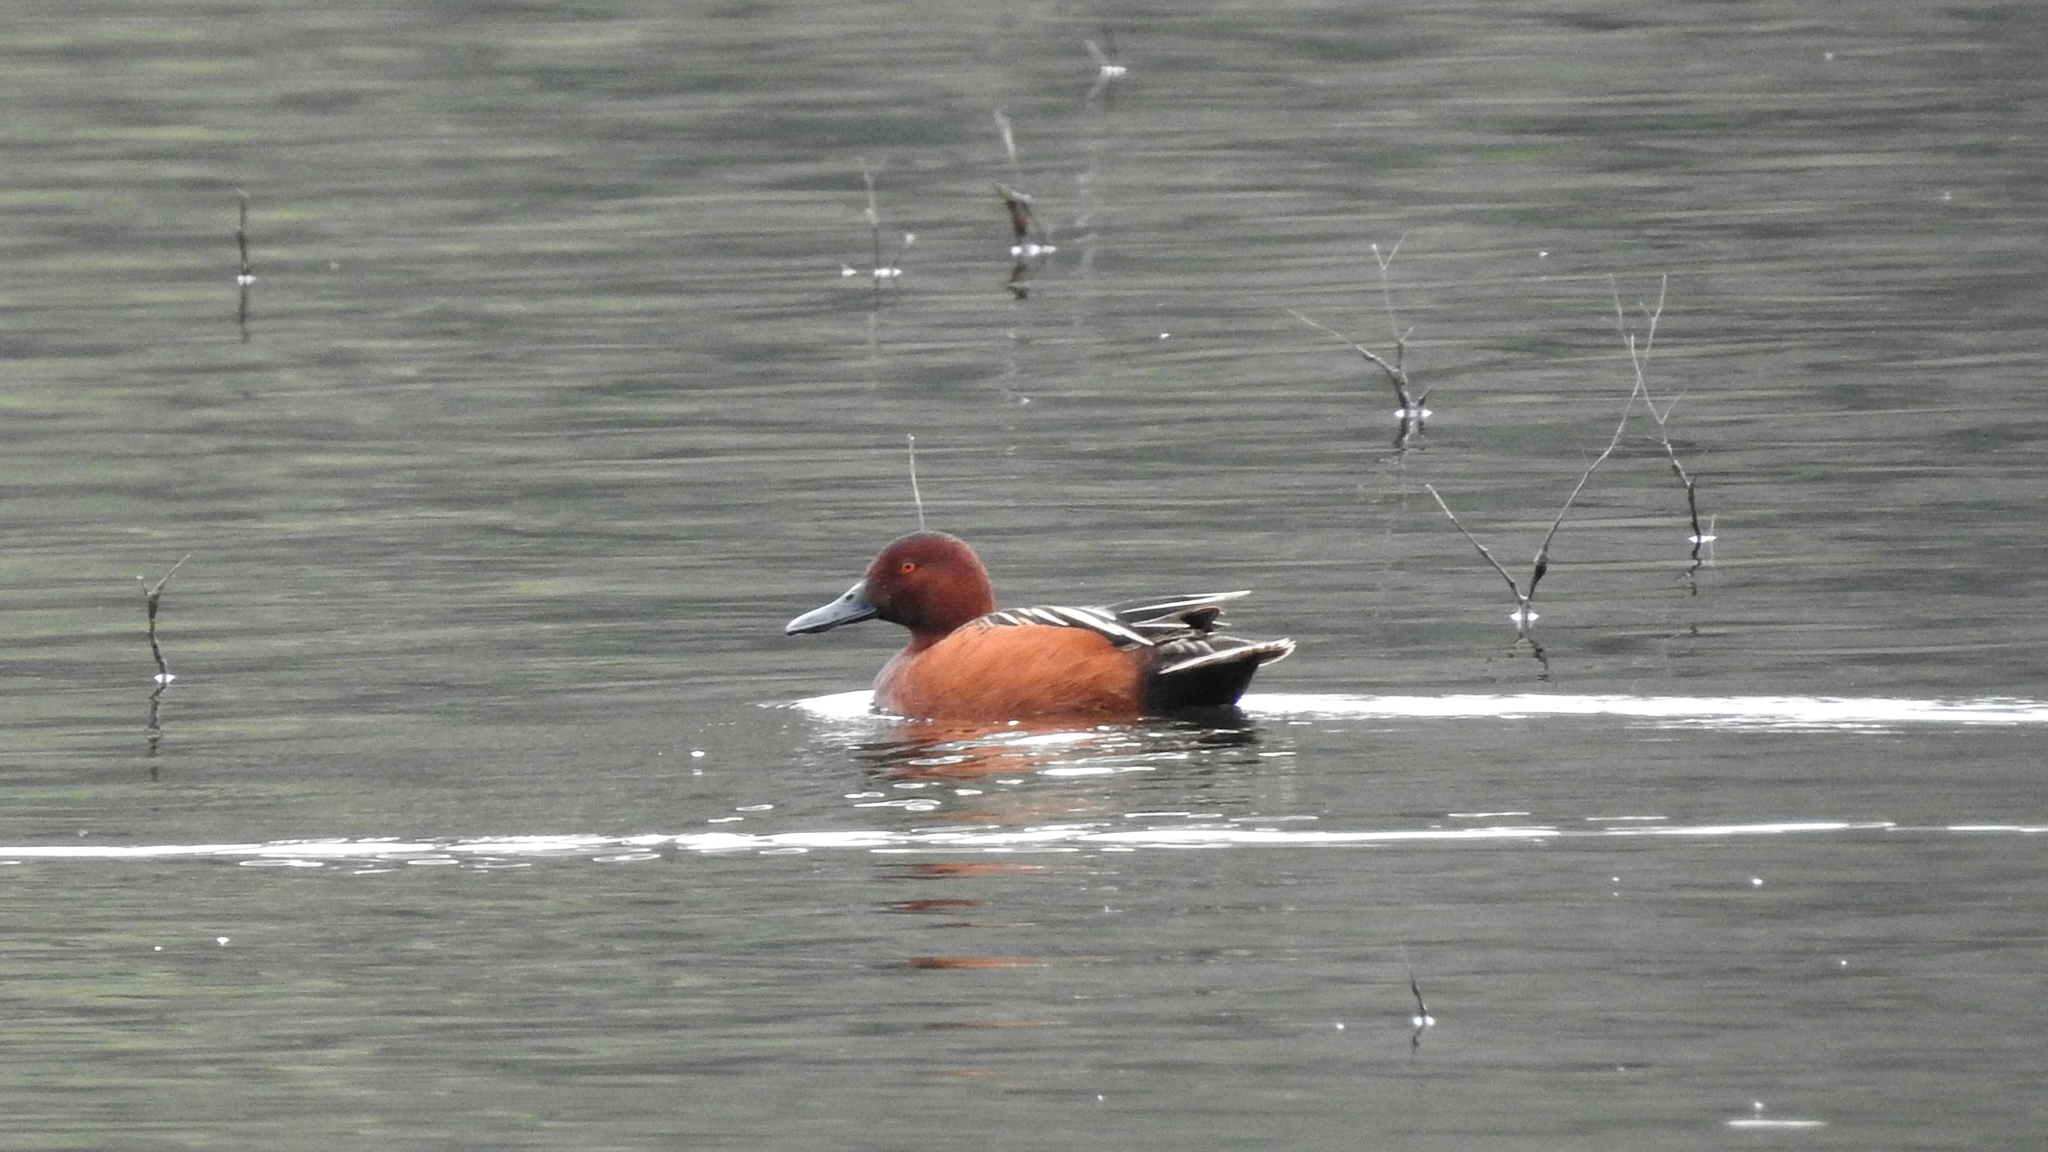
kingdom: Animalia
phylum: Chordata
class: Aves
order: Anseriformes
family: Anatidae
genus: Spatula
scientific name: Spatula cyanoptera
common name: Cinnamon teal
